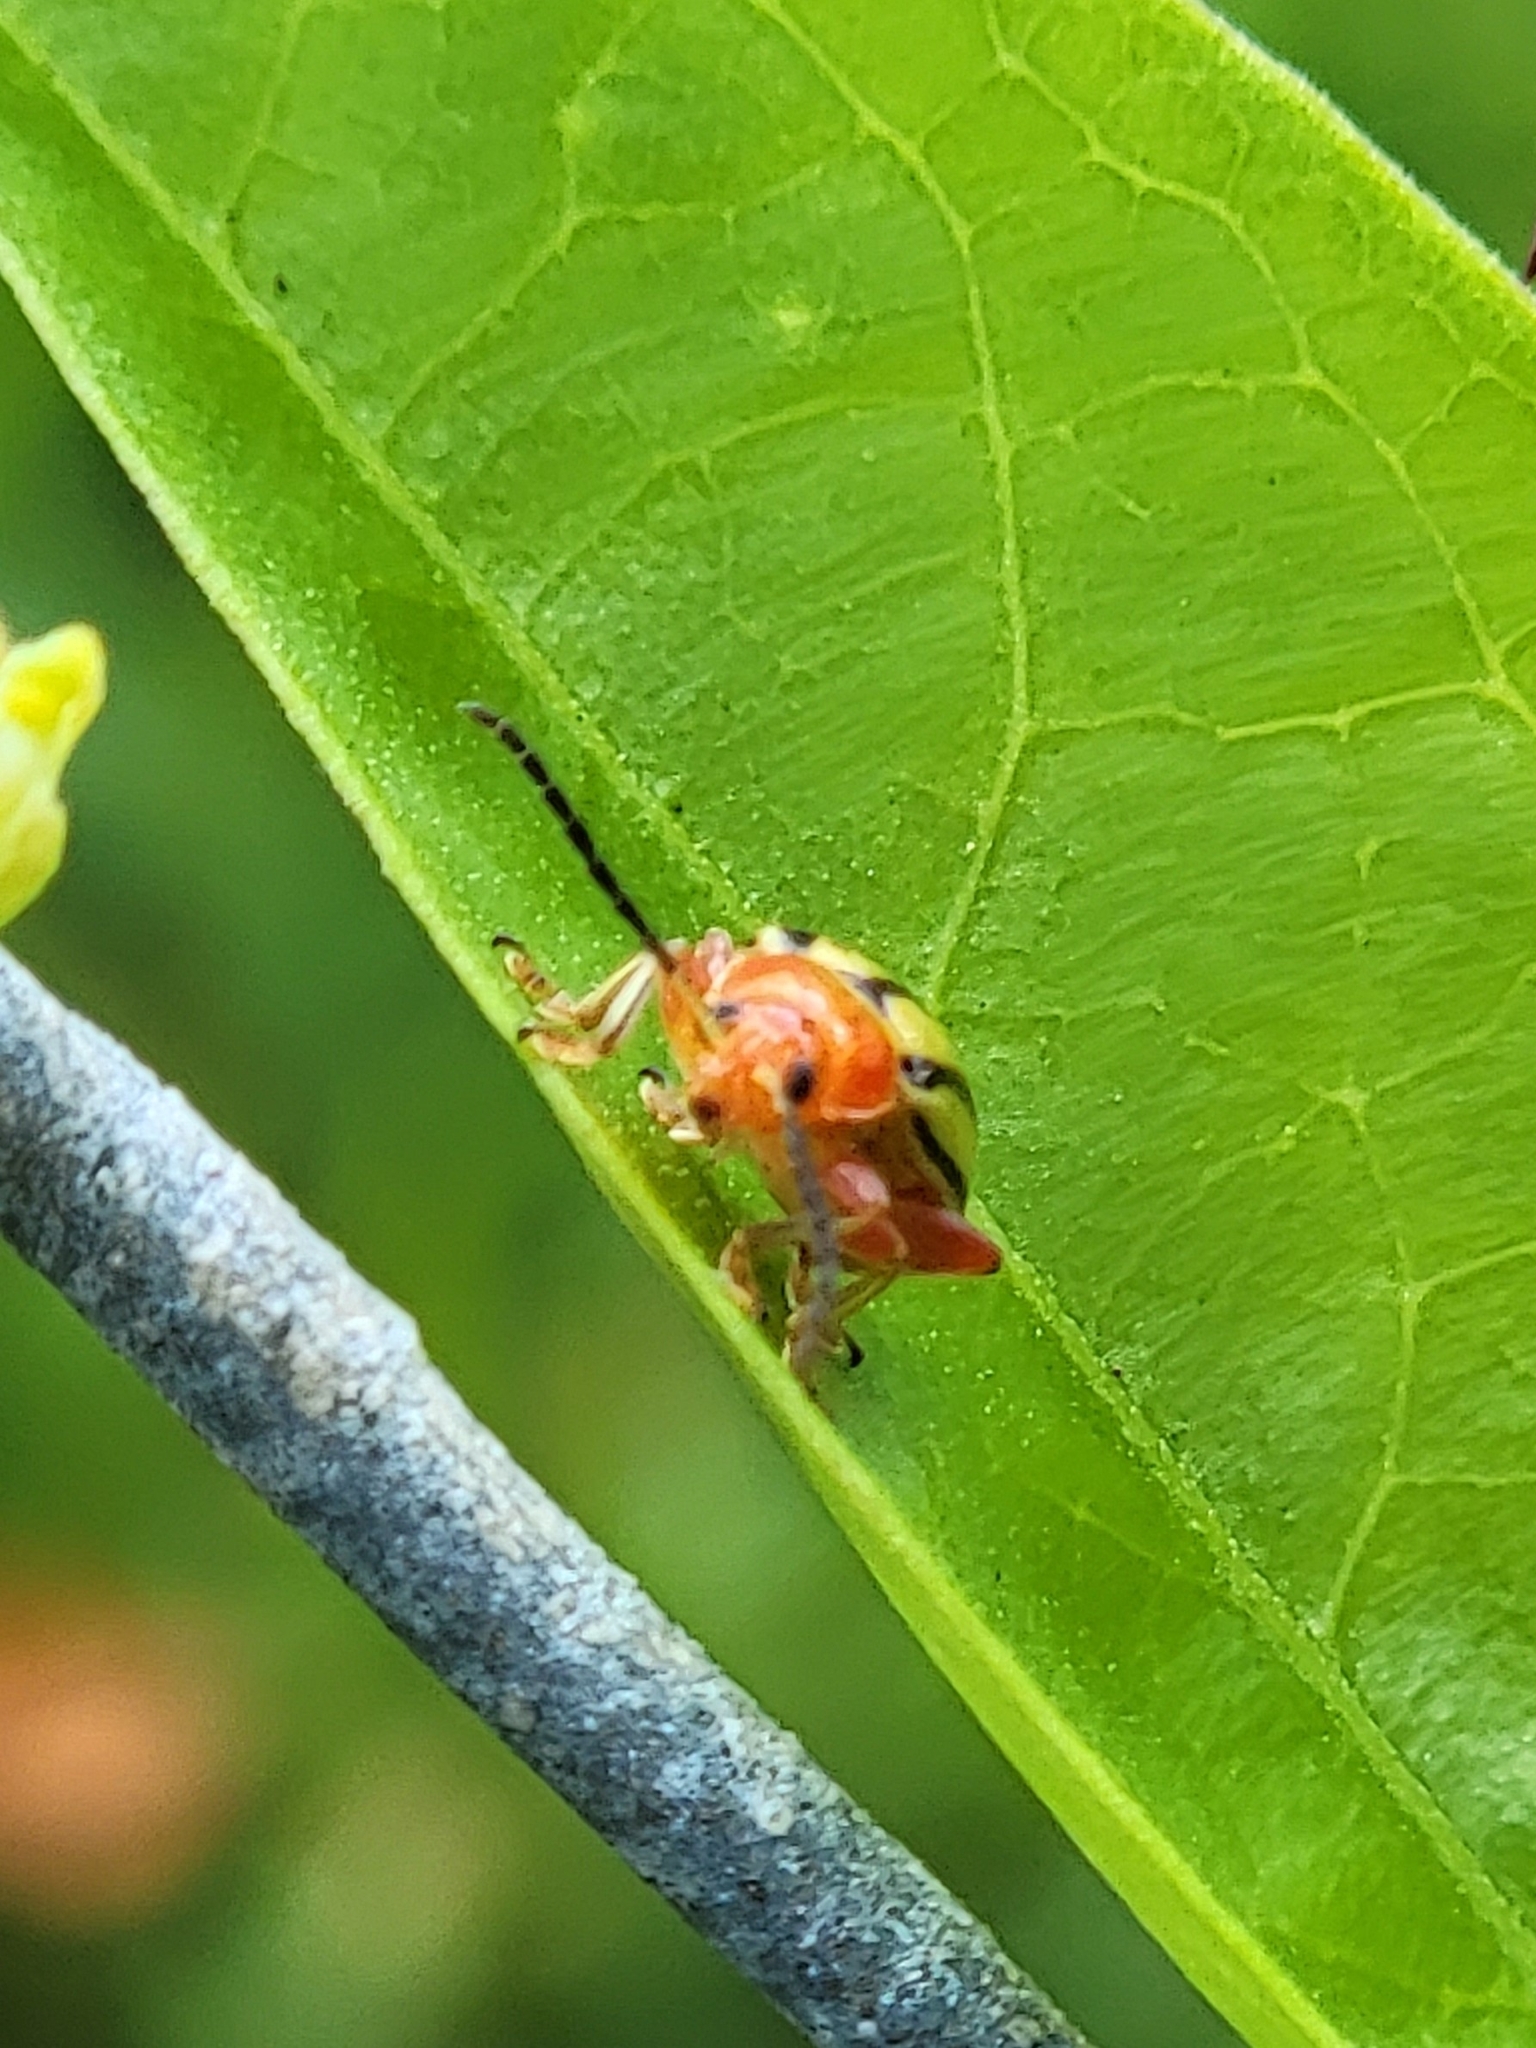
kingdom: Animalia
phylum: Arthropoda
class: Insecta
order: Coleoptera
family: Chrysomelidae
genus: Disonycha
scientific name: Disonycha
